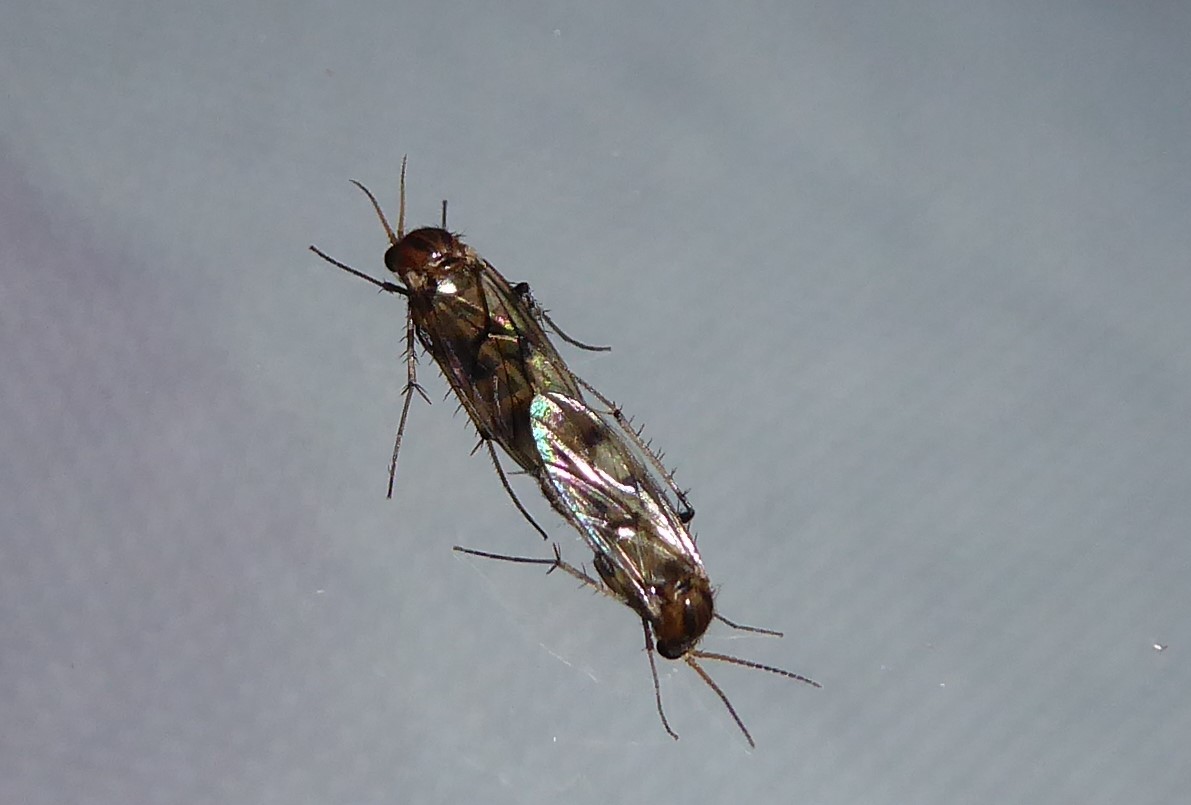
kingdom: Animalia
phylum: Arthropoda
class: Insecta
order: Diptera
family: Mycetophilidae
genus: Anomalomyia
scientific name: Anomalomyia guttata
